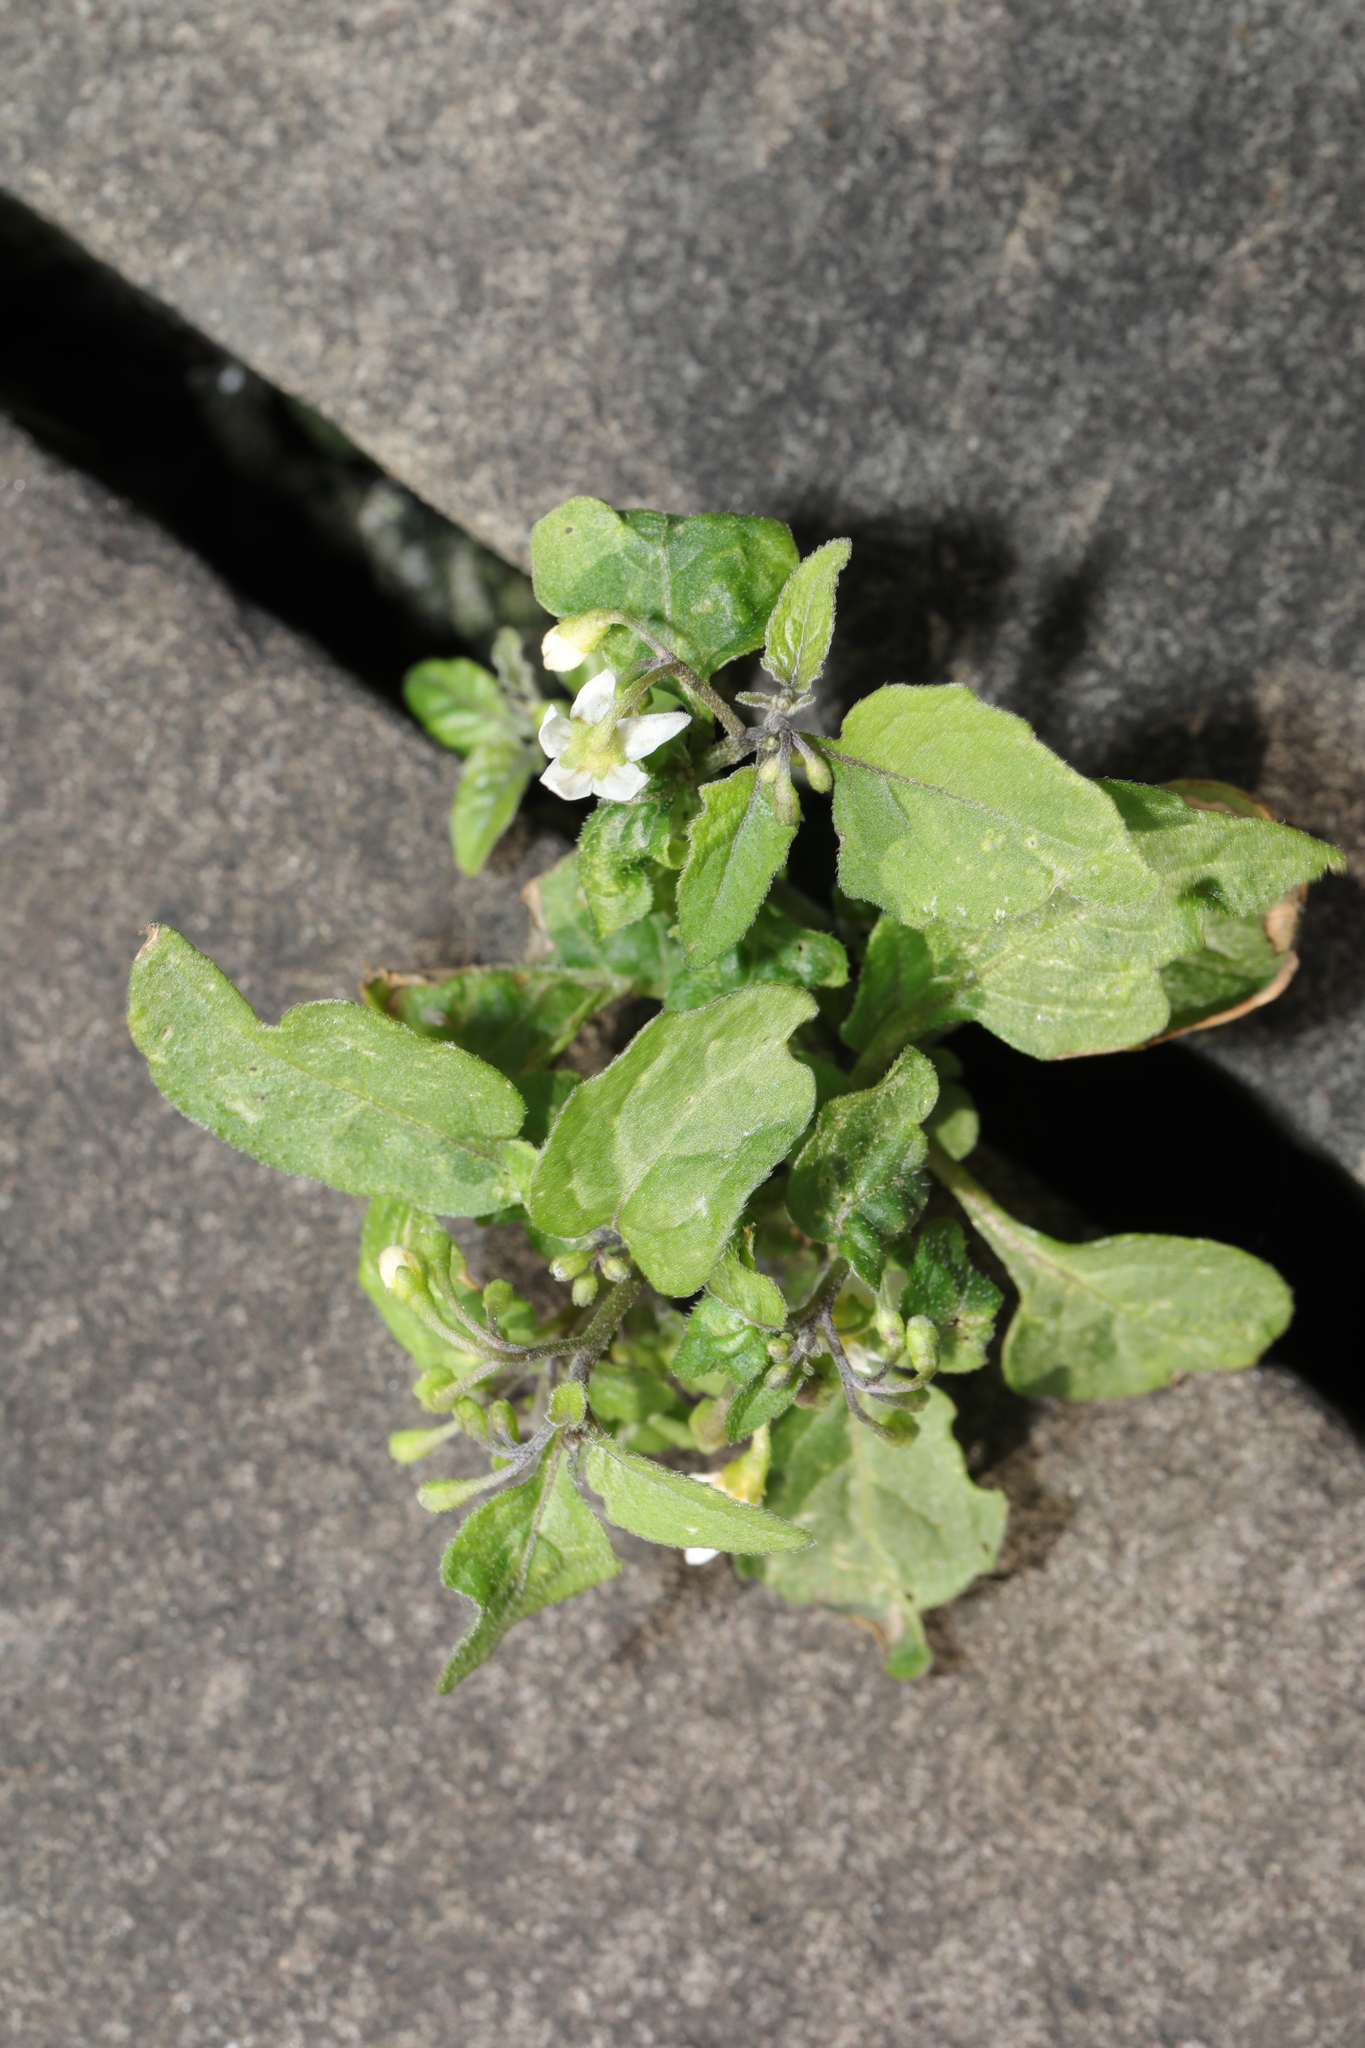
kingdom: Plantae
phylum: Tracheophyta
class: Magnoliopsida
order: Solanales
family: Solanaceae
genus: Solanum
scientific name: Solanum nigrum
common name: Black nightshade
